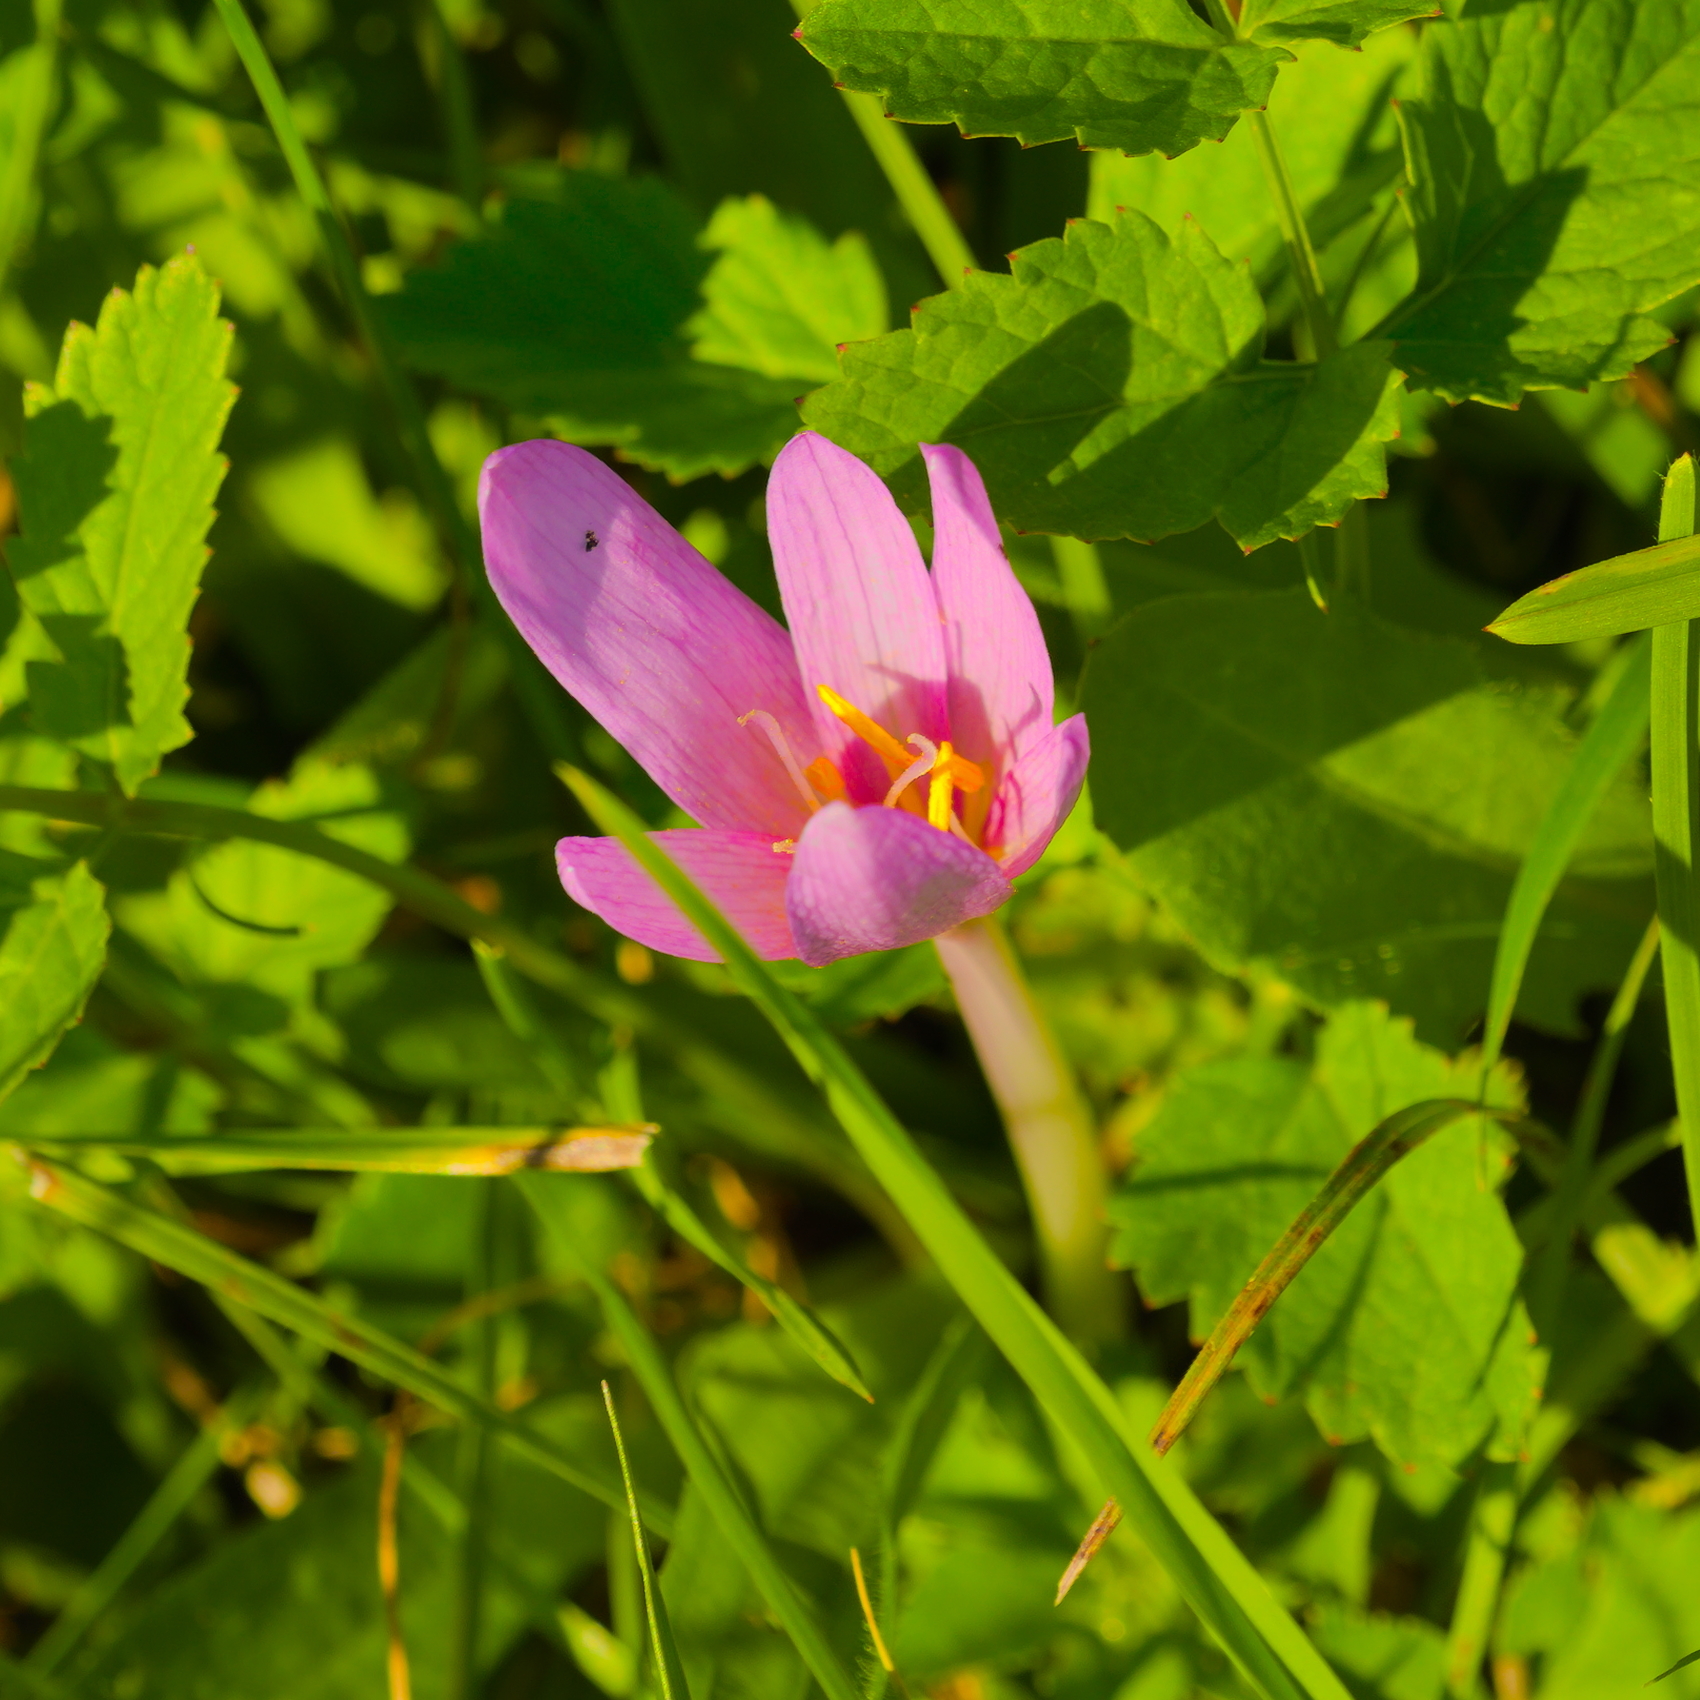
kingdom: Plantae
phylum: Tracheophyta
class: Liliopsida
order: Liliales
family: Colchicaceae
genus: Colchicum
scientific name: Colchicum autumnale
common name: Autumn crocus
